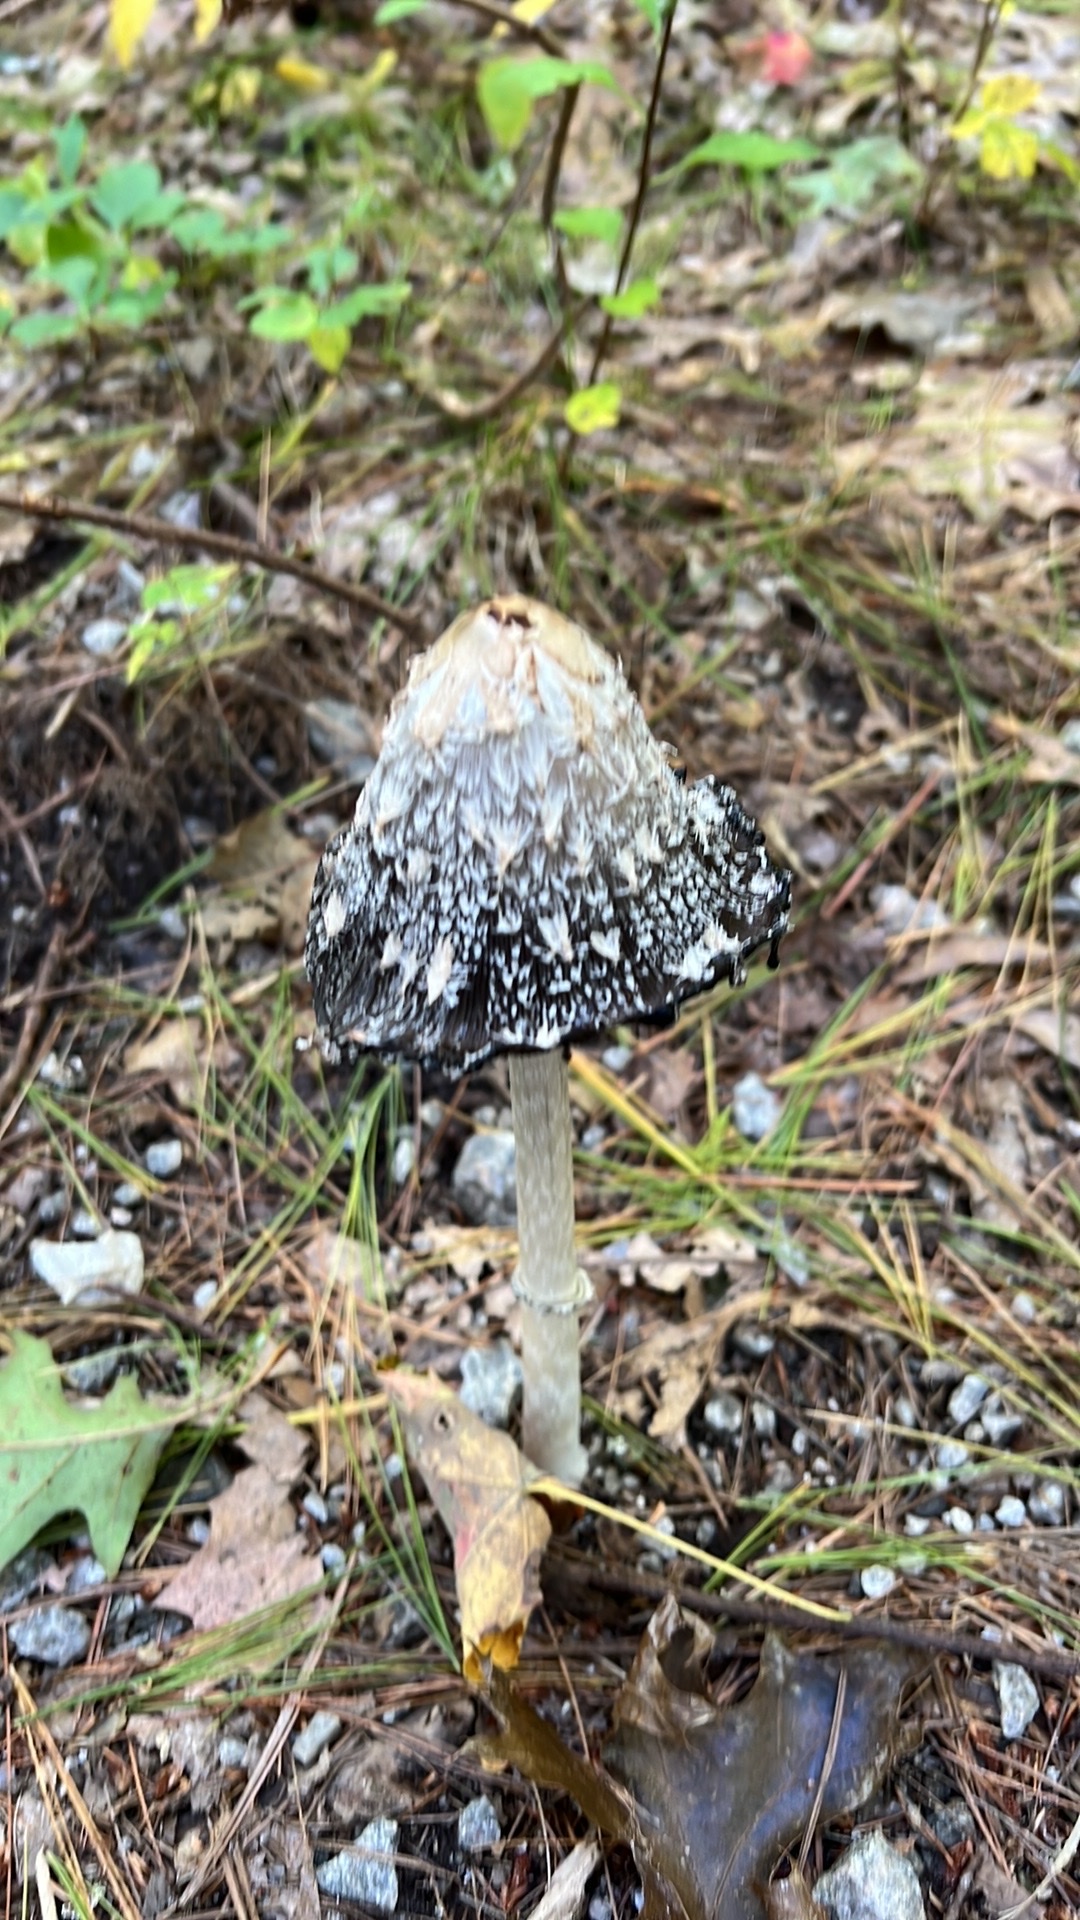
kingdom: Fungi
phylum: Basidiomycota
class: Agaricomycetes
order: Agaricales
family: Agaricaceae
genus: Coprinus
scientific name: Coprinus comatus
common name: Lawyer's wig
